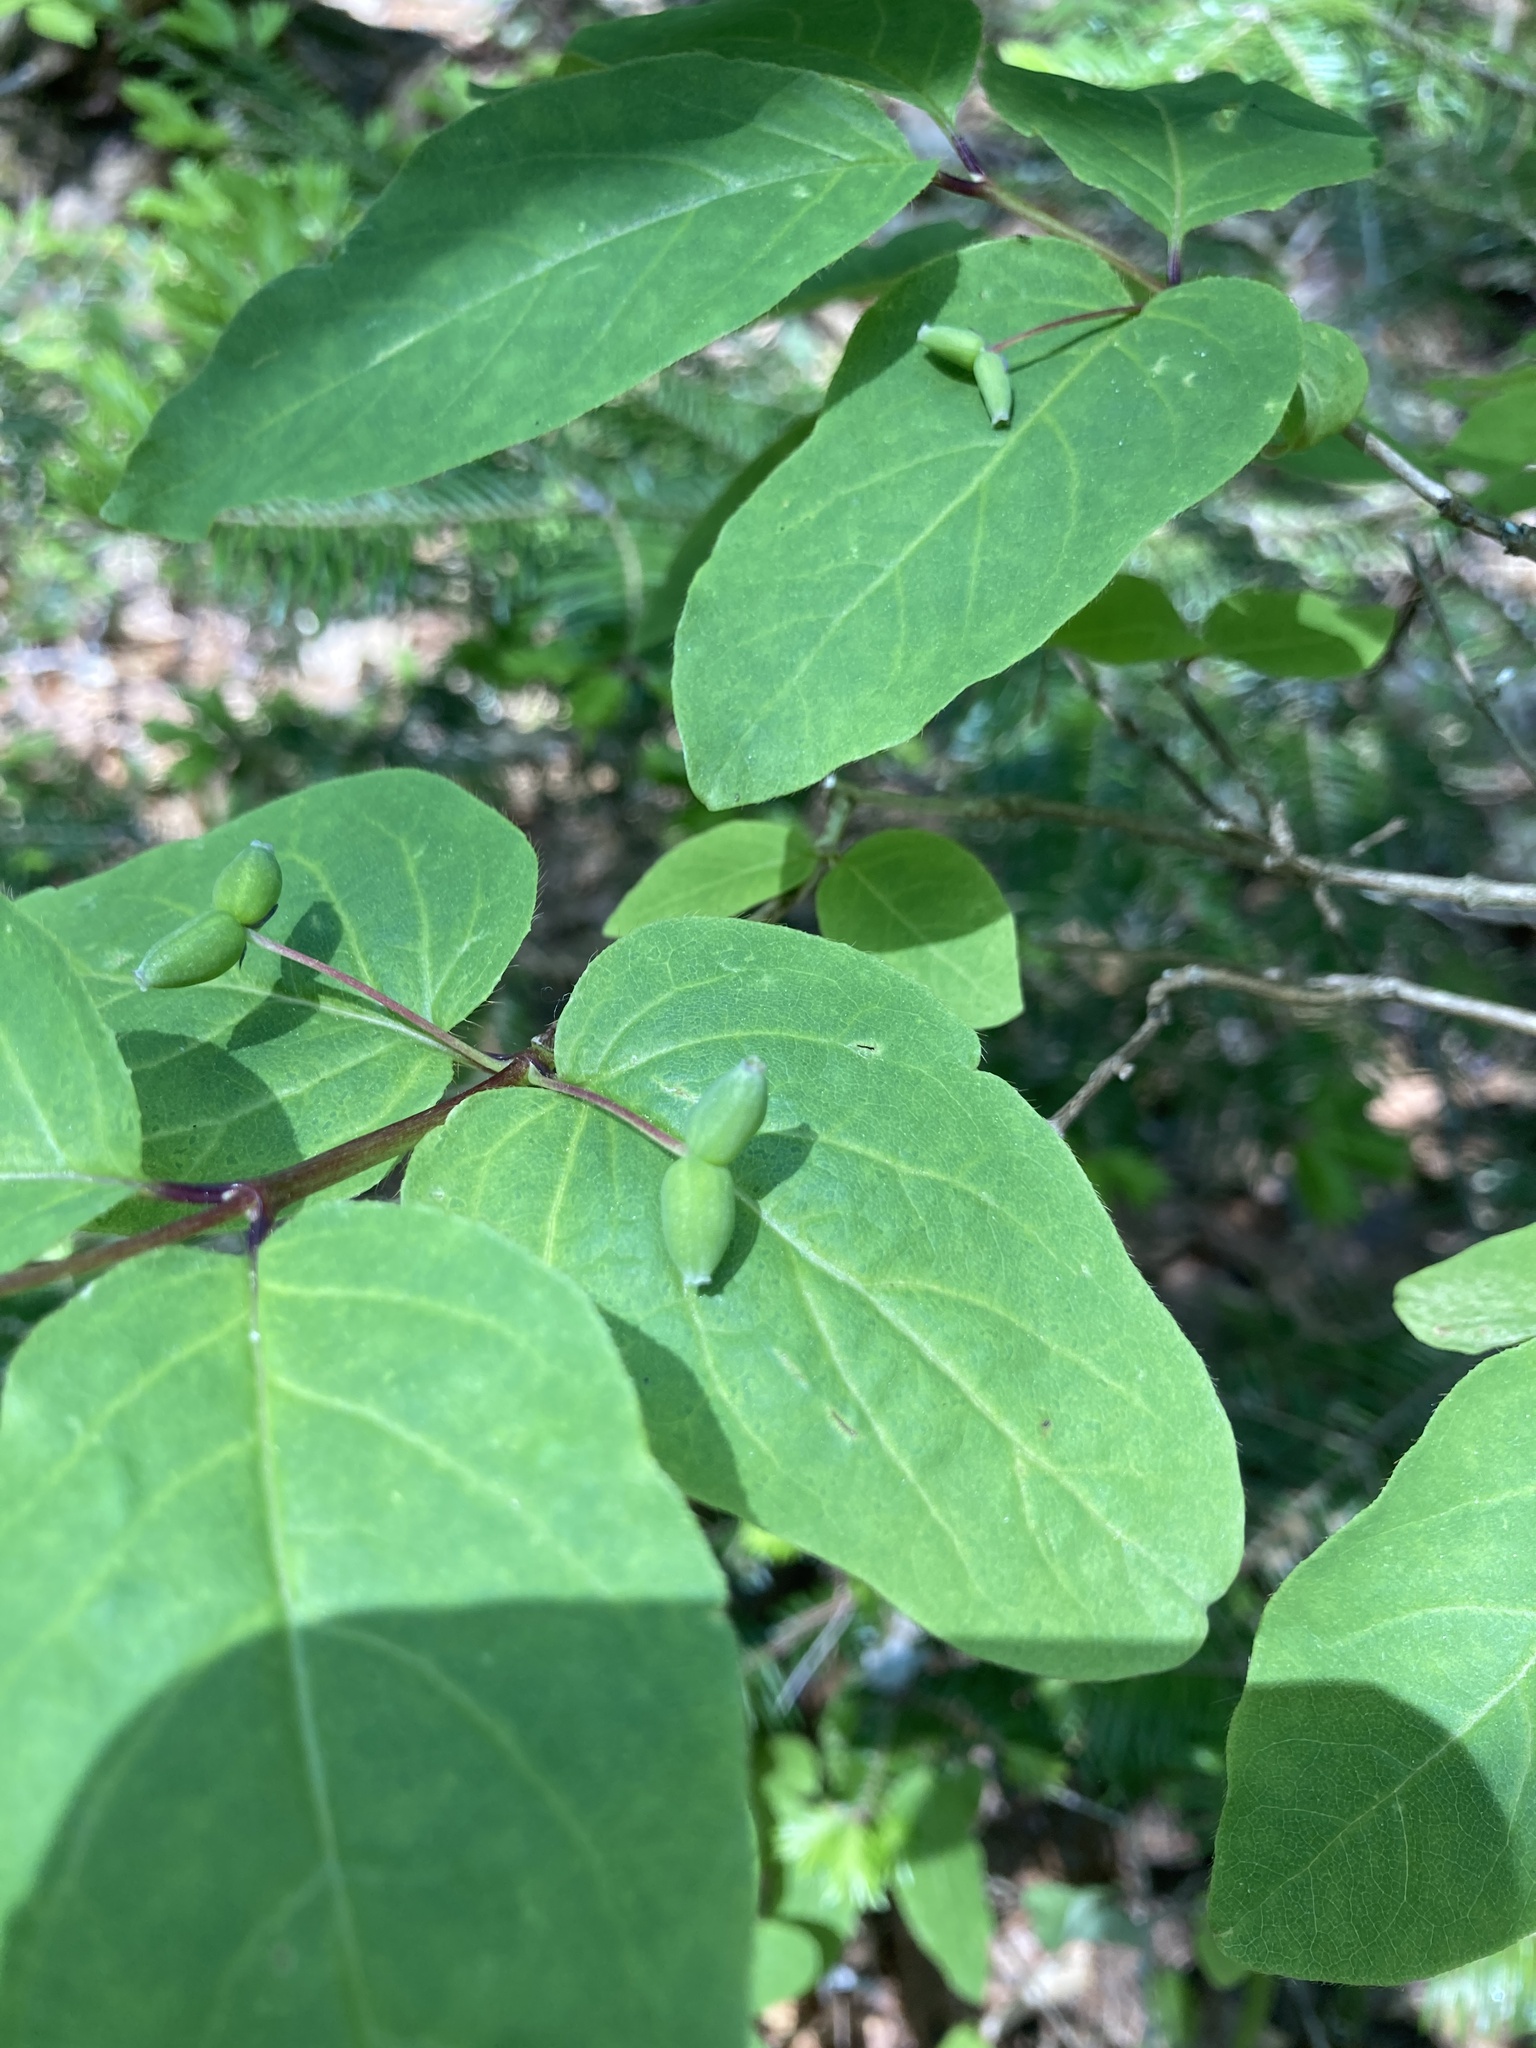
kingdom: Plantae
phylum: Tracheophyta
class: Magnoliopsida
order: Dipsacales
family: Caprifoliaceae
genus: Lonicera
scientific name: Lonicera canadensis
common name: American fly-honeysuckle
